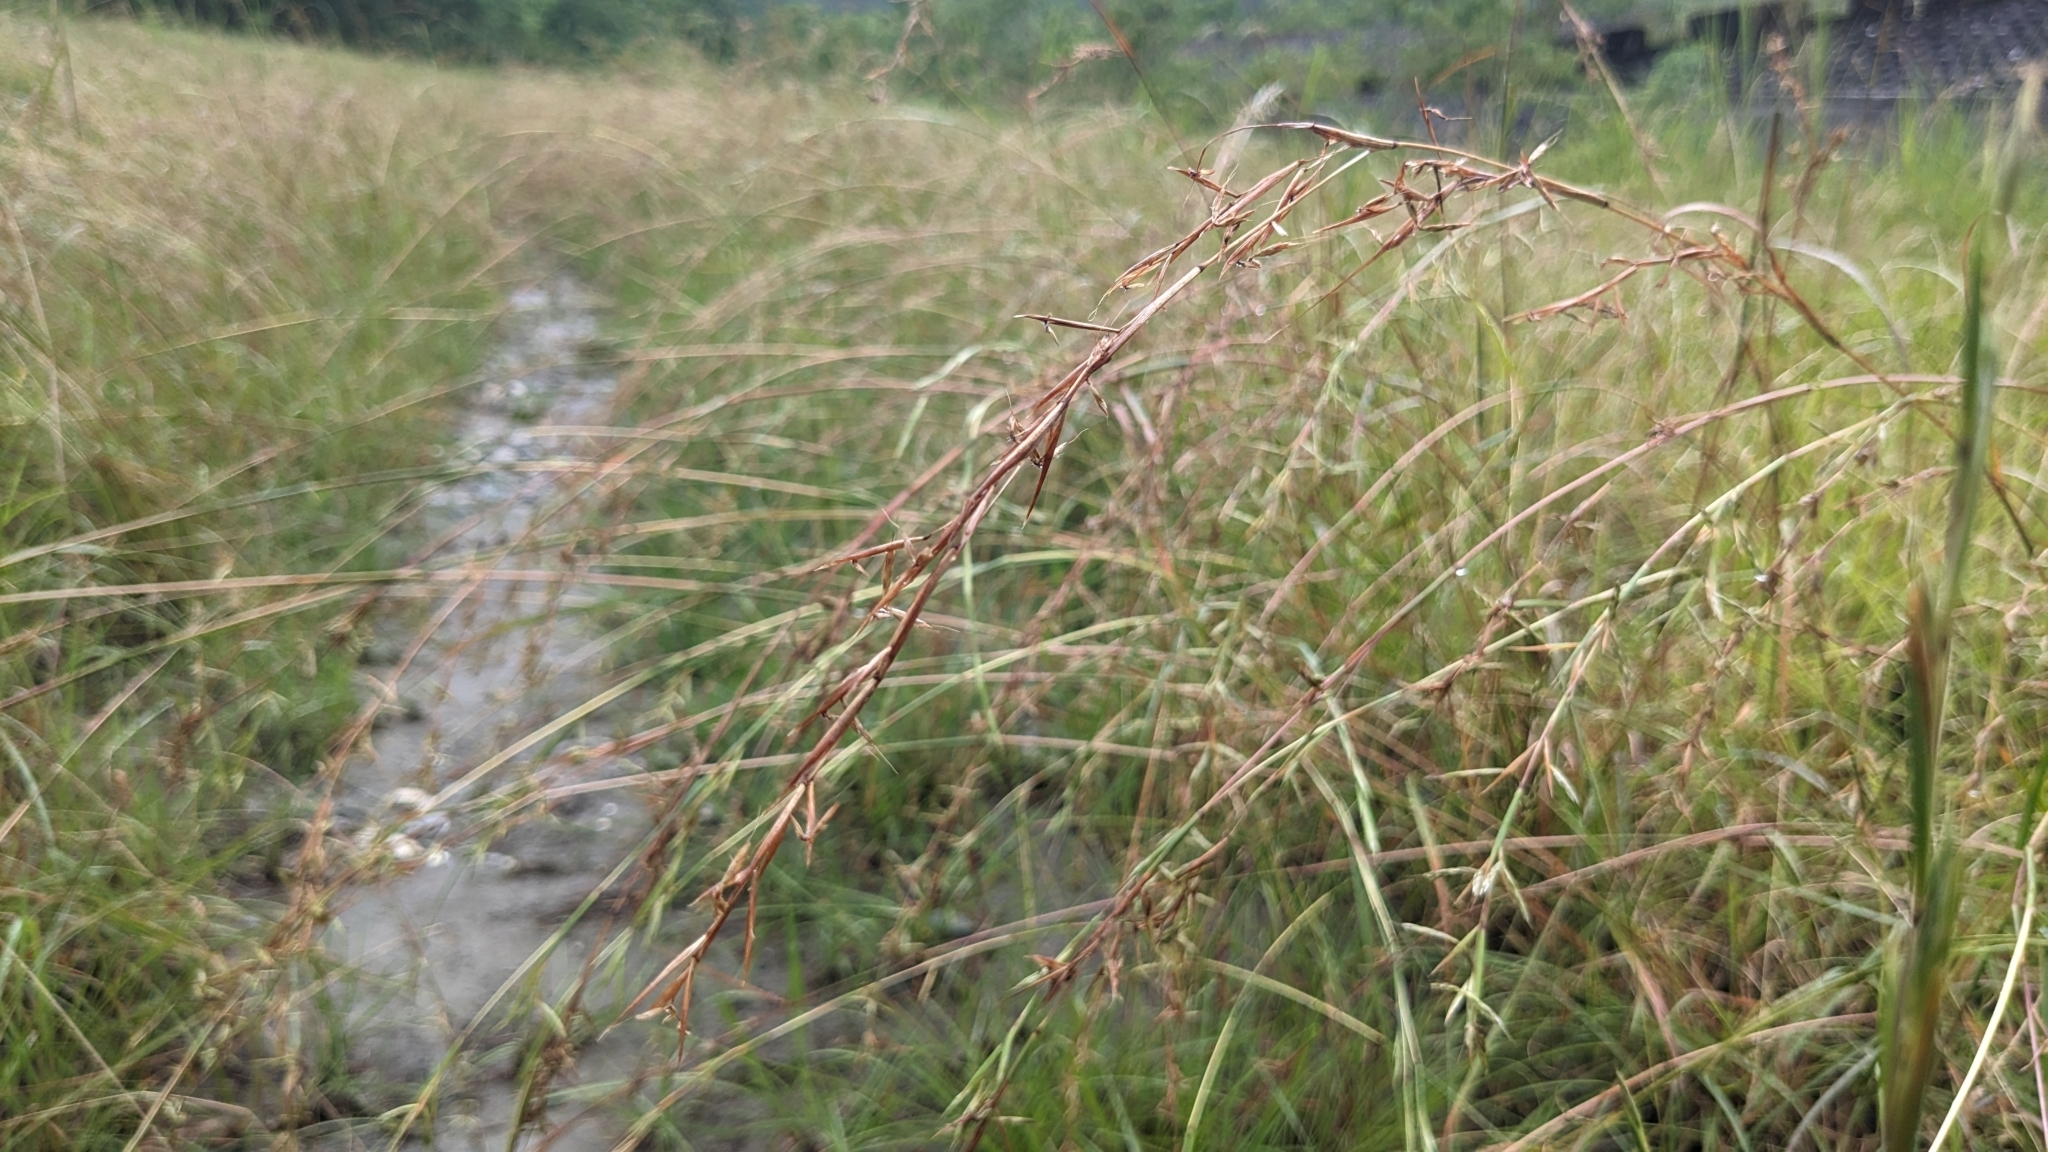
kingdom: Plantae
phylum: Tracheophyta
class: Liliopsida
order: Poales
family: Poaceae
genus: Cymbopogon
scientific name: Cymbopogon tortilis
